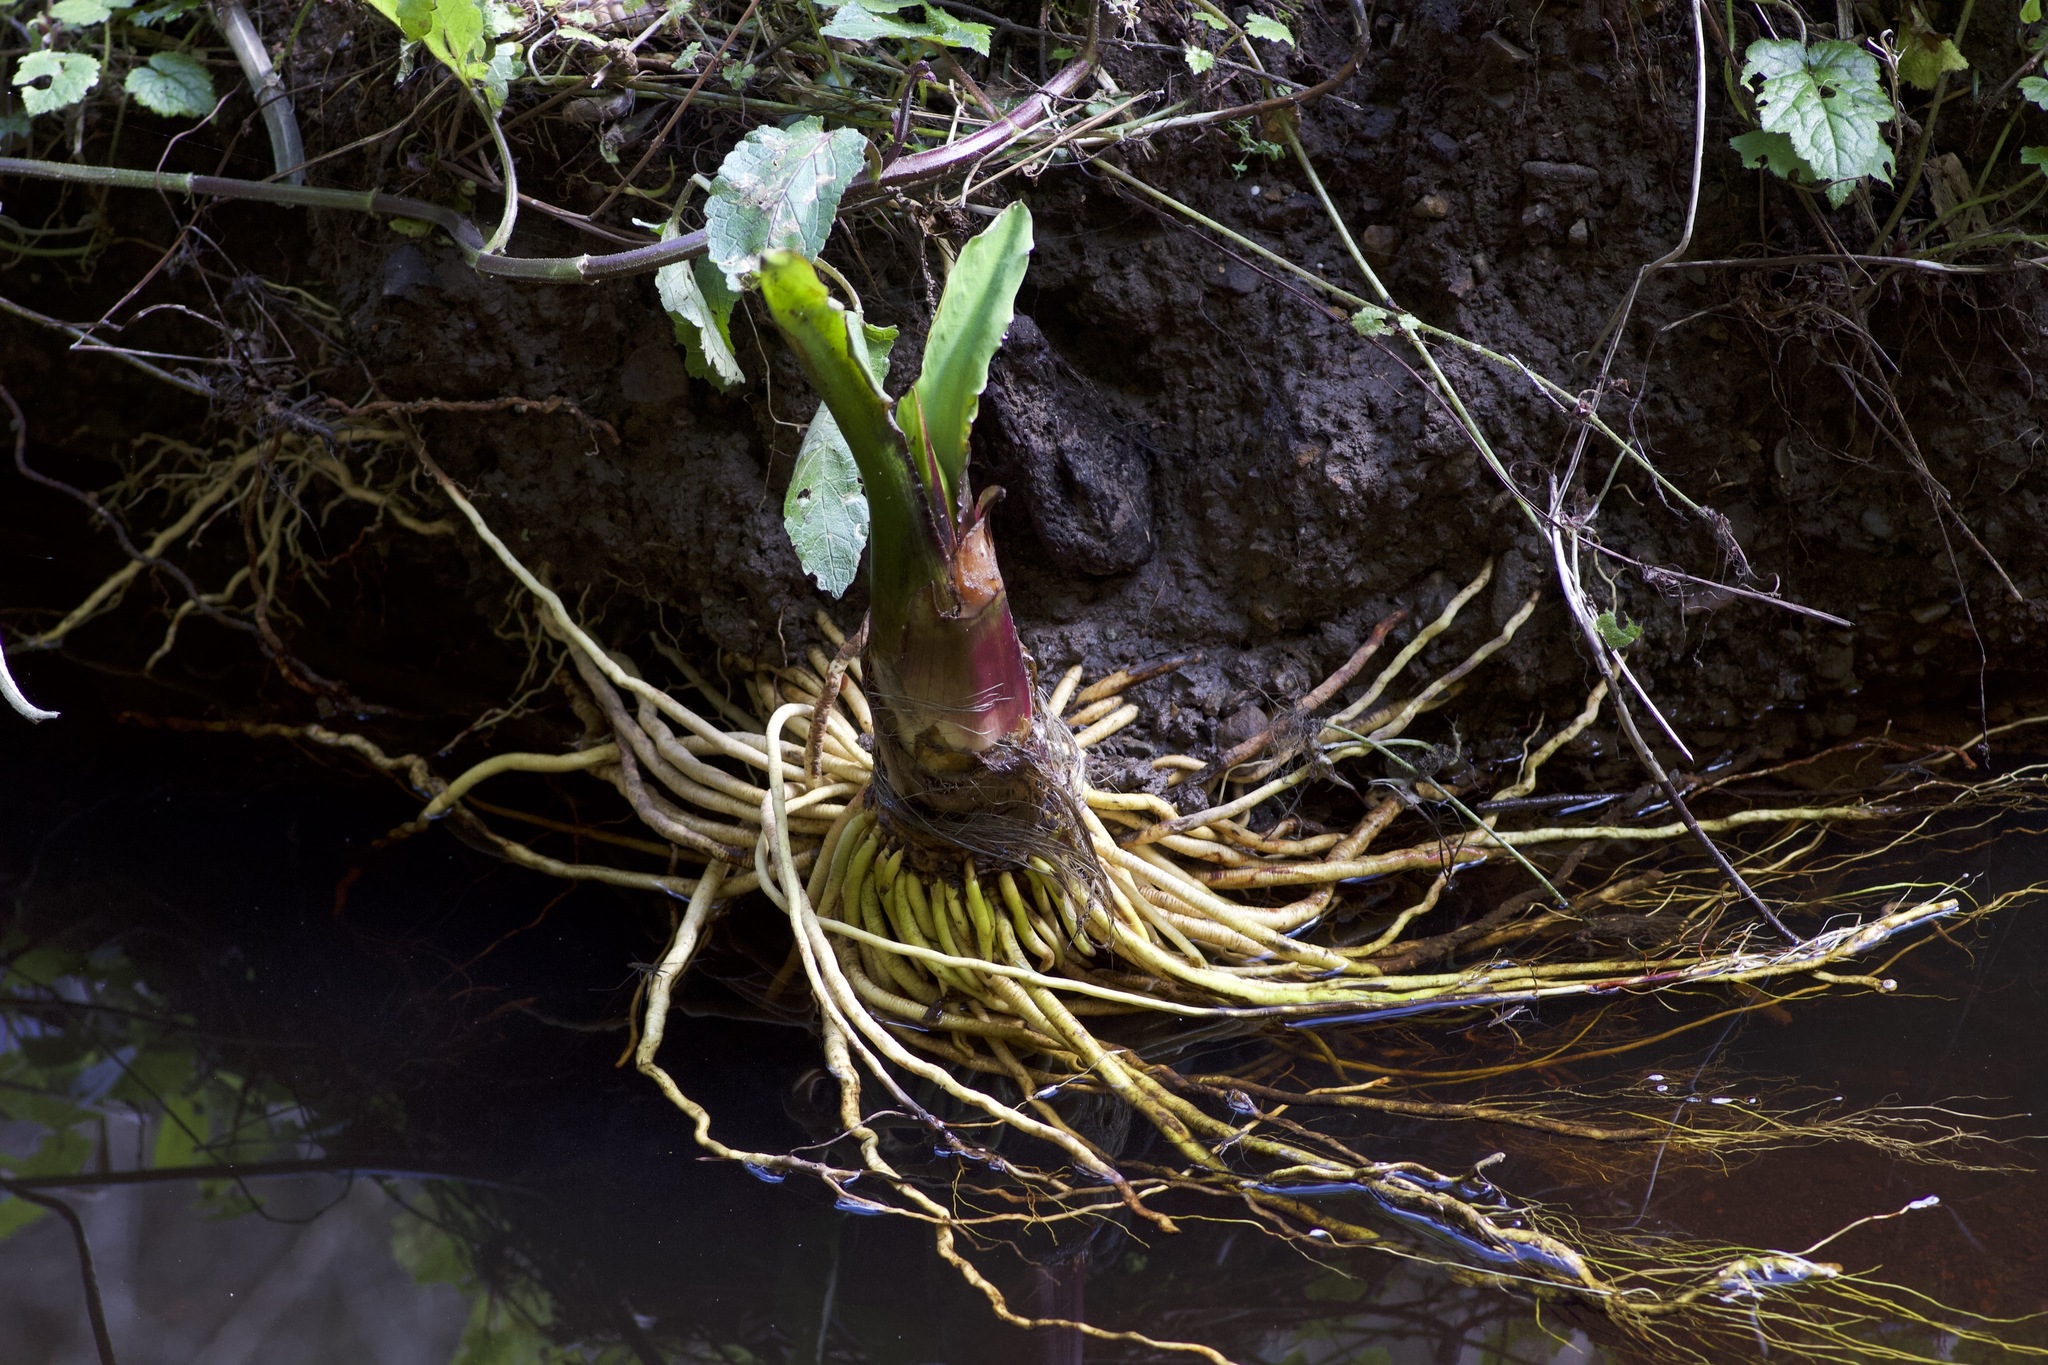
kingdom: Plantae
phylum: Tracheophyta
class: Liliopsida
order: Alismatales
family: Araceae
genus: Lysichiton
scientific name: Lysichiton americanus
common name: American skunk cabbage
